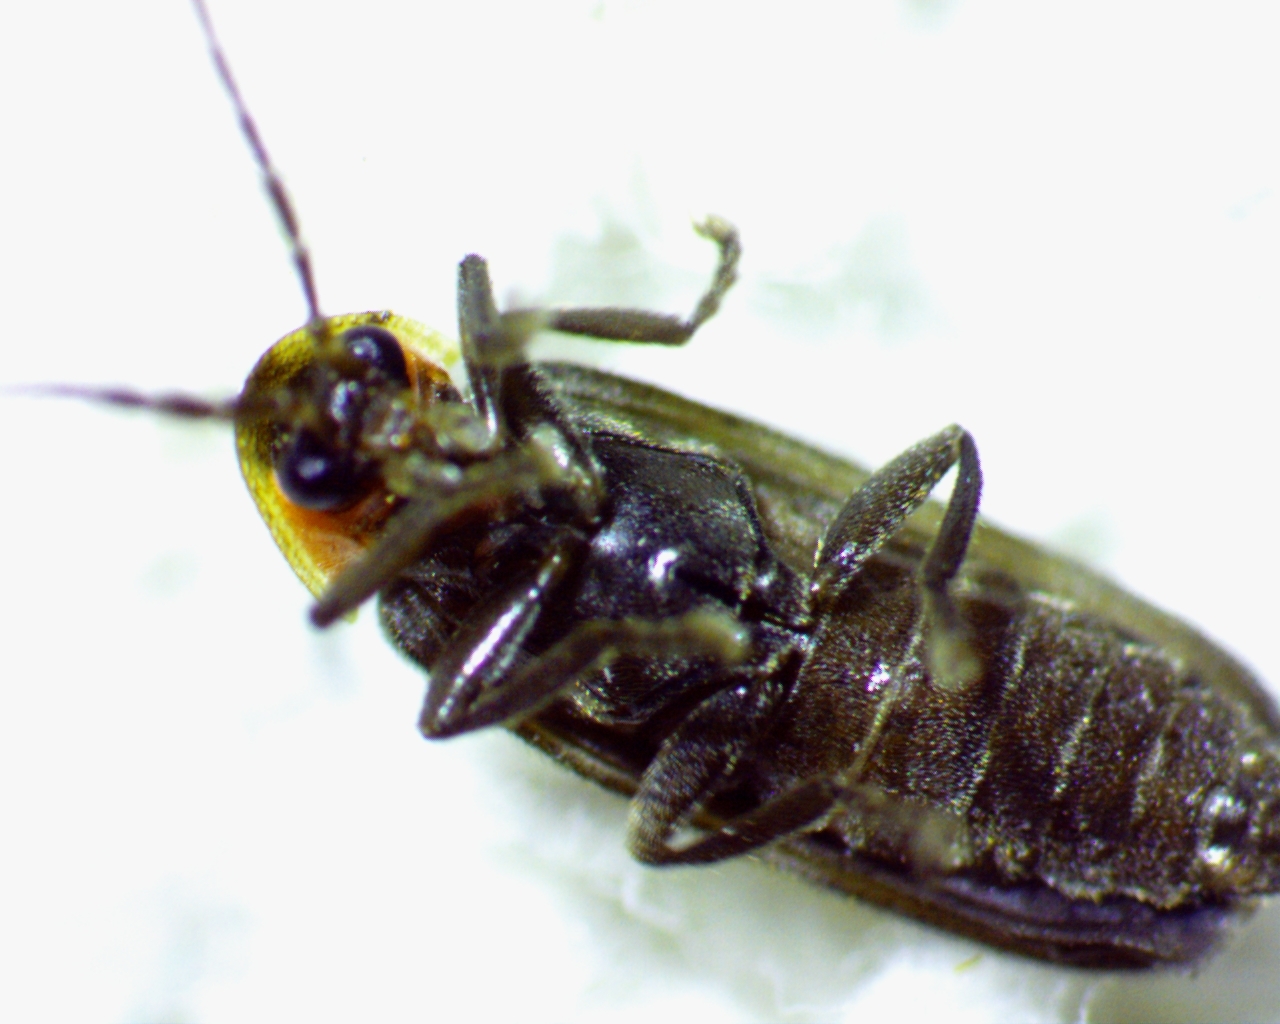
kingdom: Animalia
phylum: Arthropoda
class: Insecta
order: Coleoptera
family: Lampyridae
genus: Pyropyga
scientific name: Pyropyga minuta
